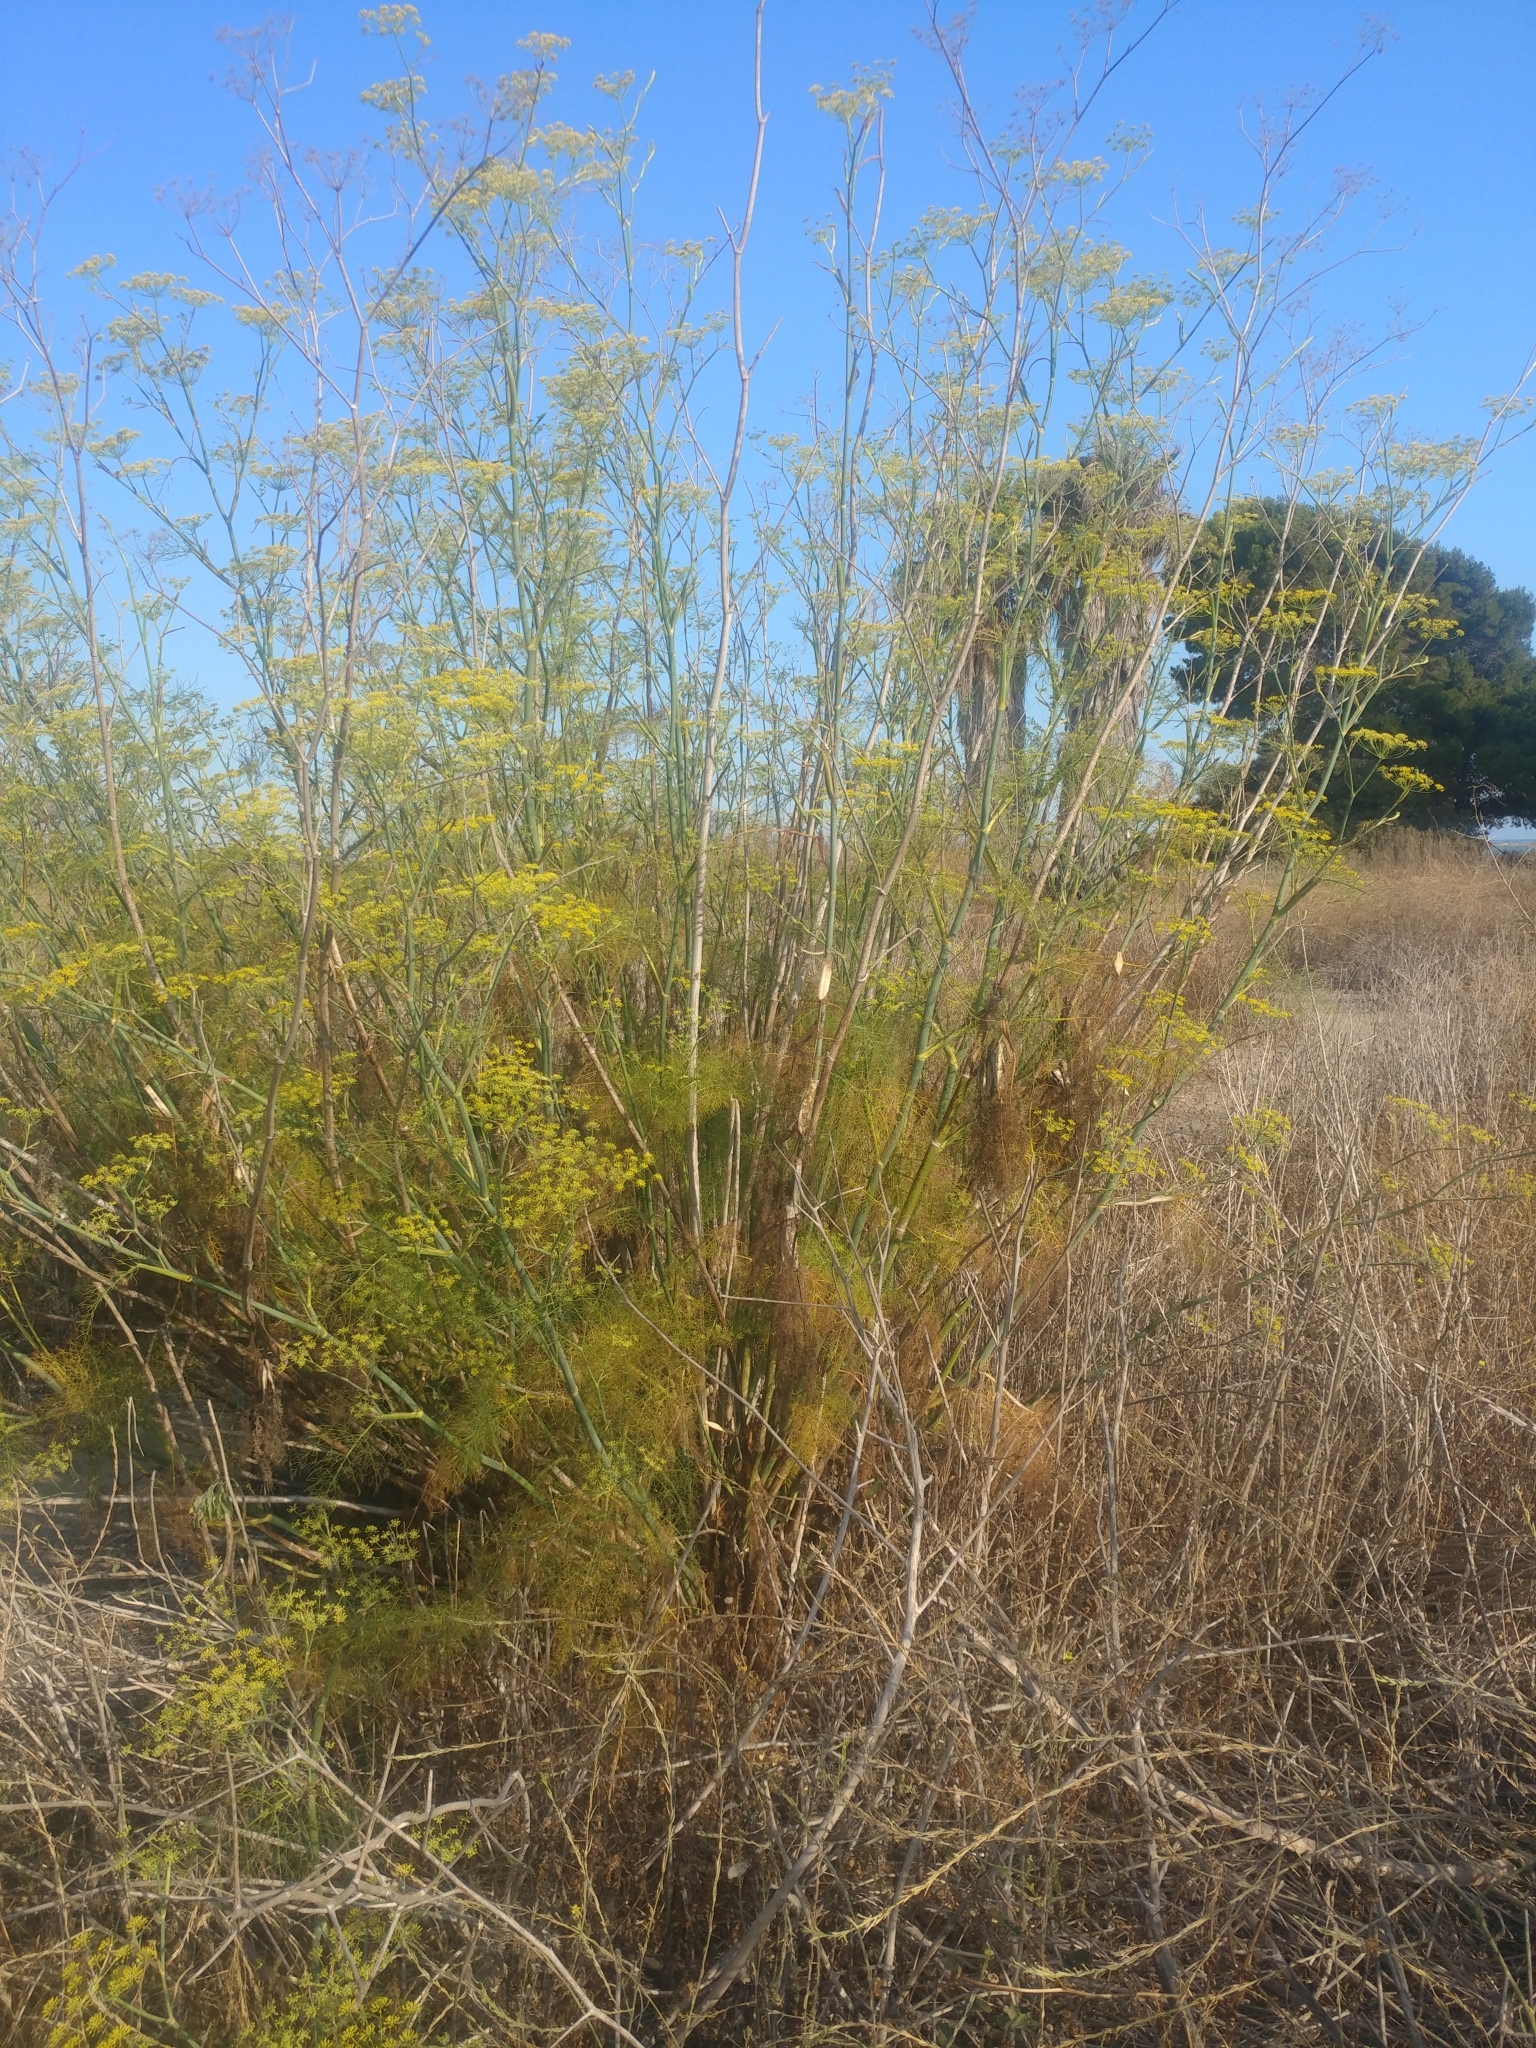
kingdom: Plantae
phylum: Tracheophyta
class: Magnoliopsida
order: Apiales
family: Apiaceae
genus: Foeniculum
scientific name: Foeniculum vulgare
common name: Fennel
